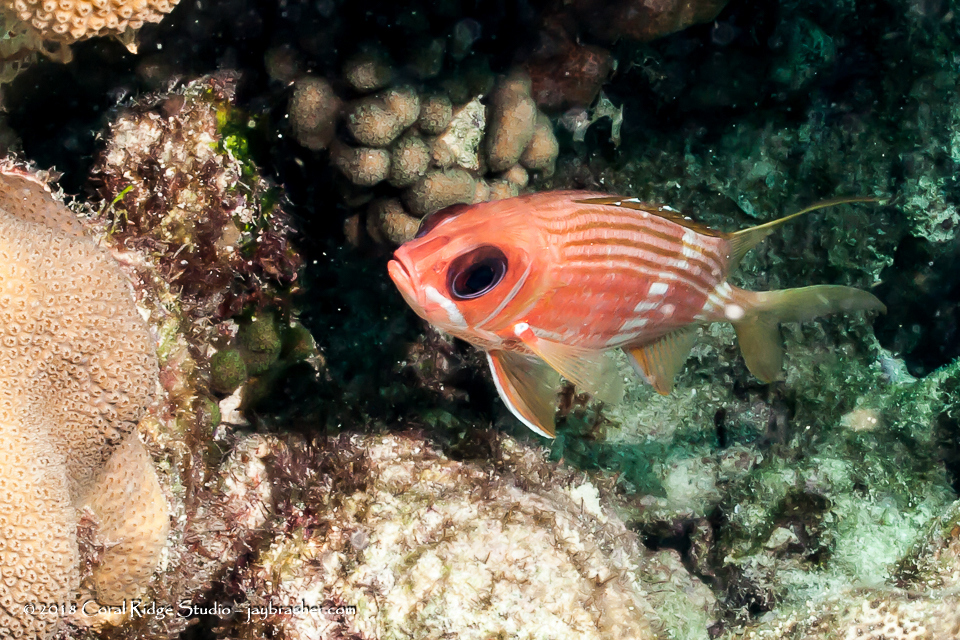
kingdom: Animalia
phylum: Chordata
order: Beryciformes
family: Holocentridae
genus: Holocentrus
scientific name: Holocentrus rufus
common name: Longspine squirrelfish
